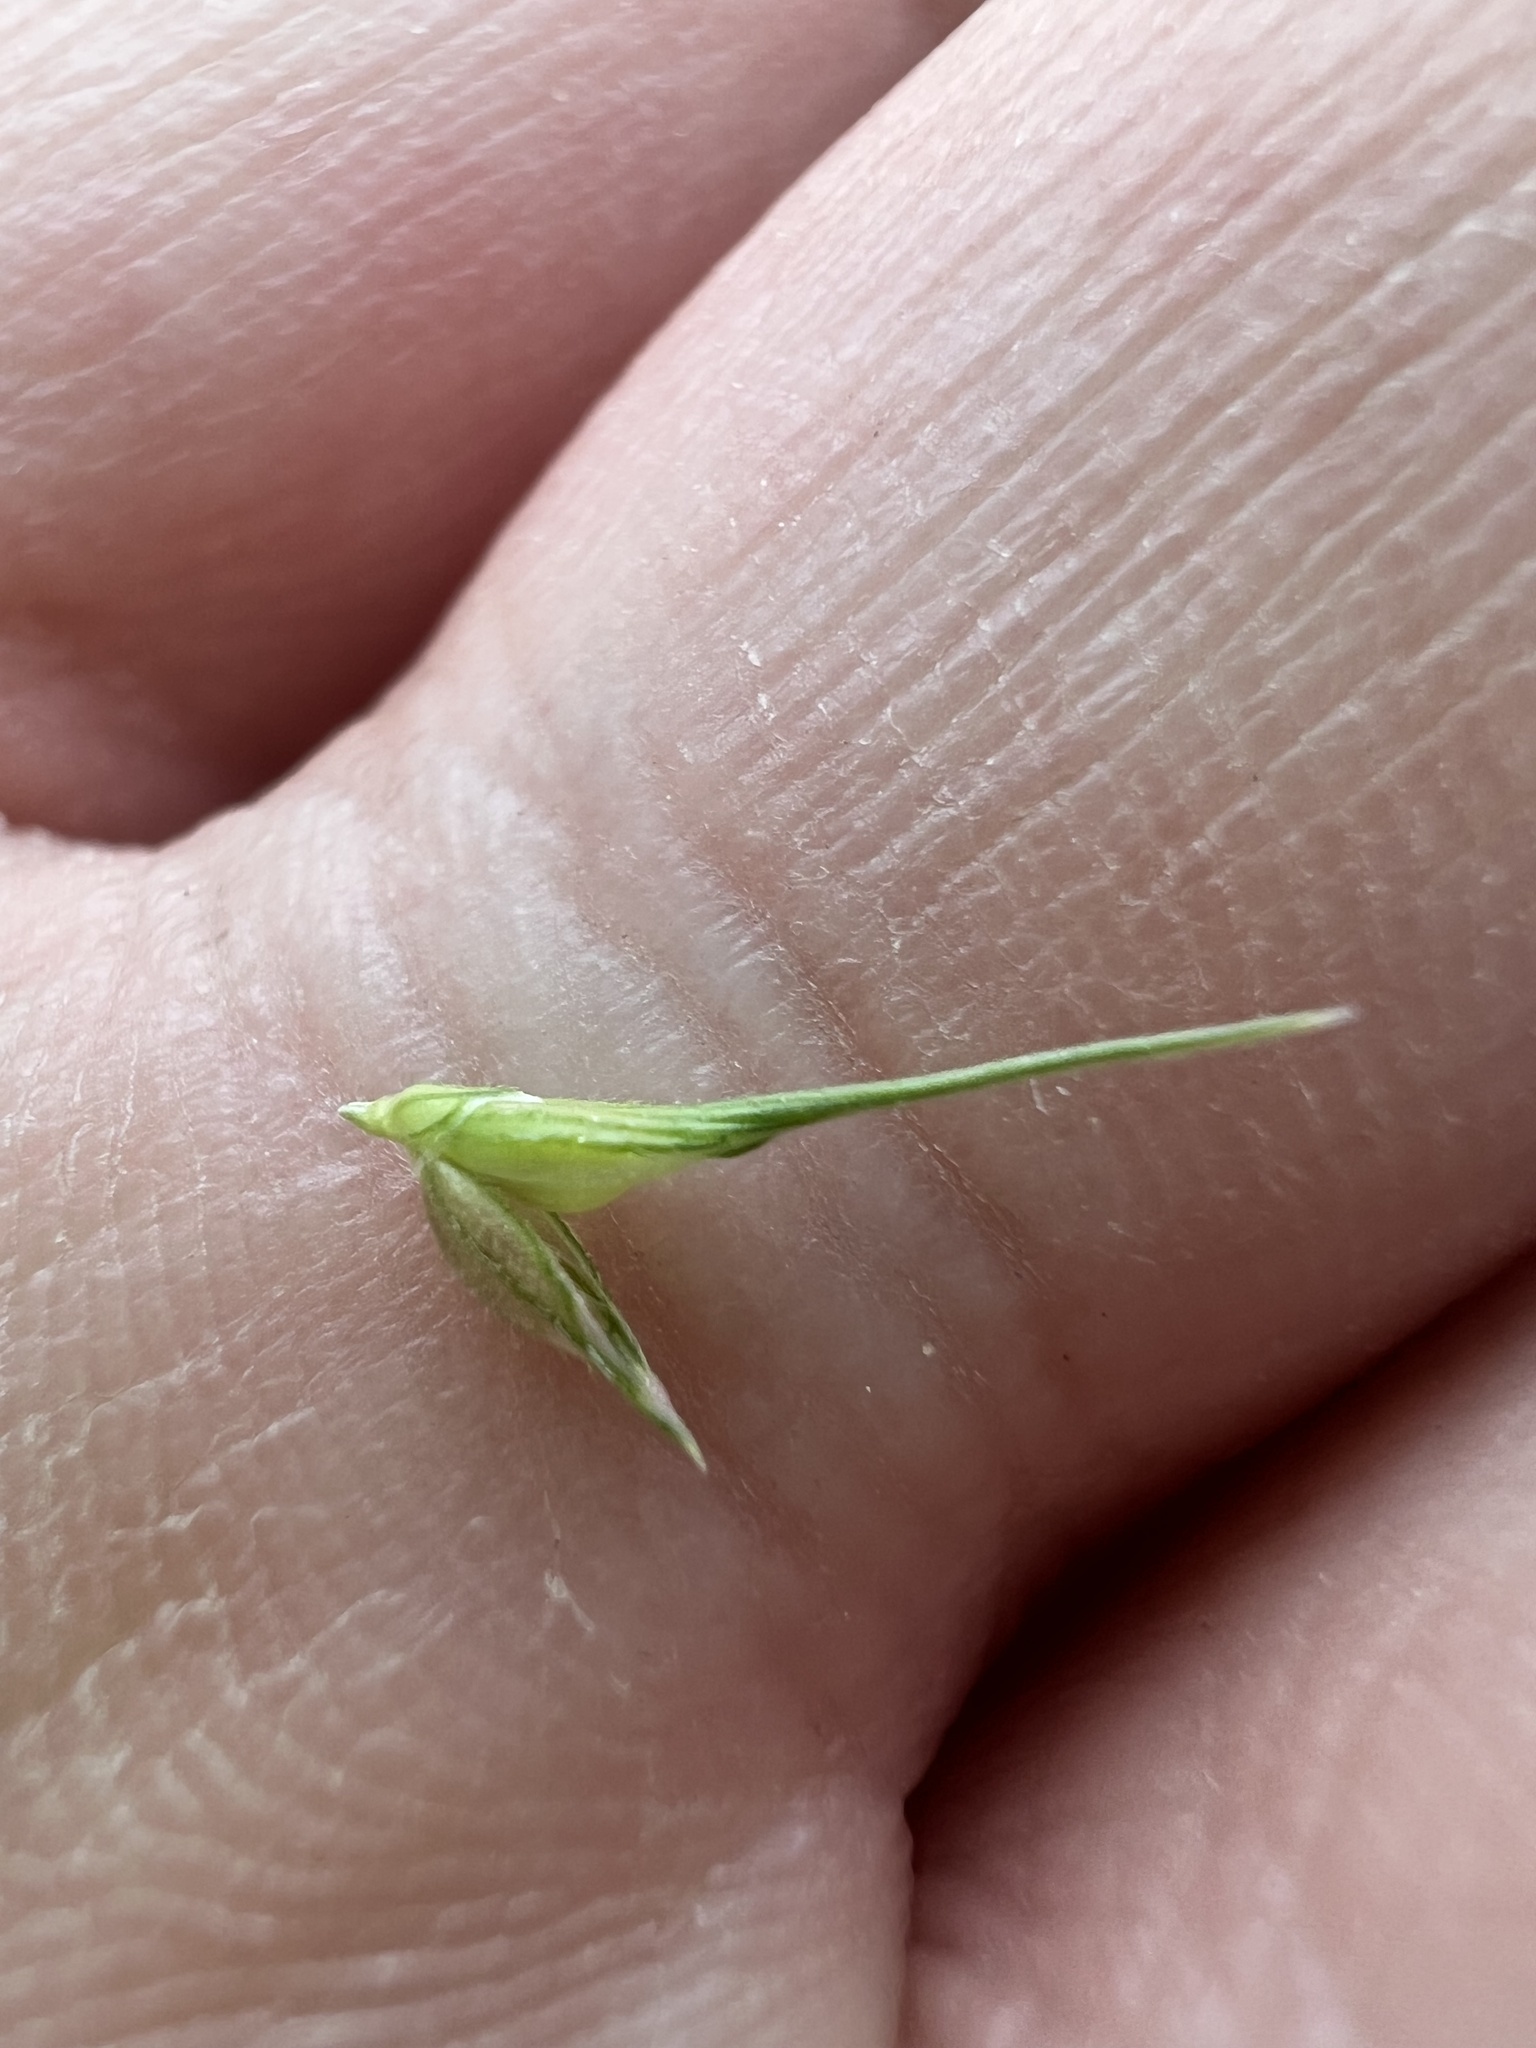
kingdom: Plantae
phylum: Tracheophyta
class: Liliopsida
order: Poales
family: Poaceae
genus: Echinochloa
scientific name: Echinochloa crus-galli
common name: Cockspur
